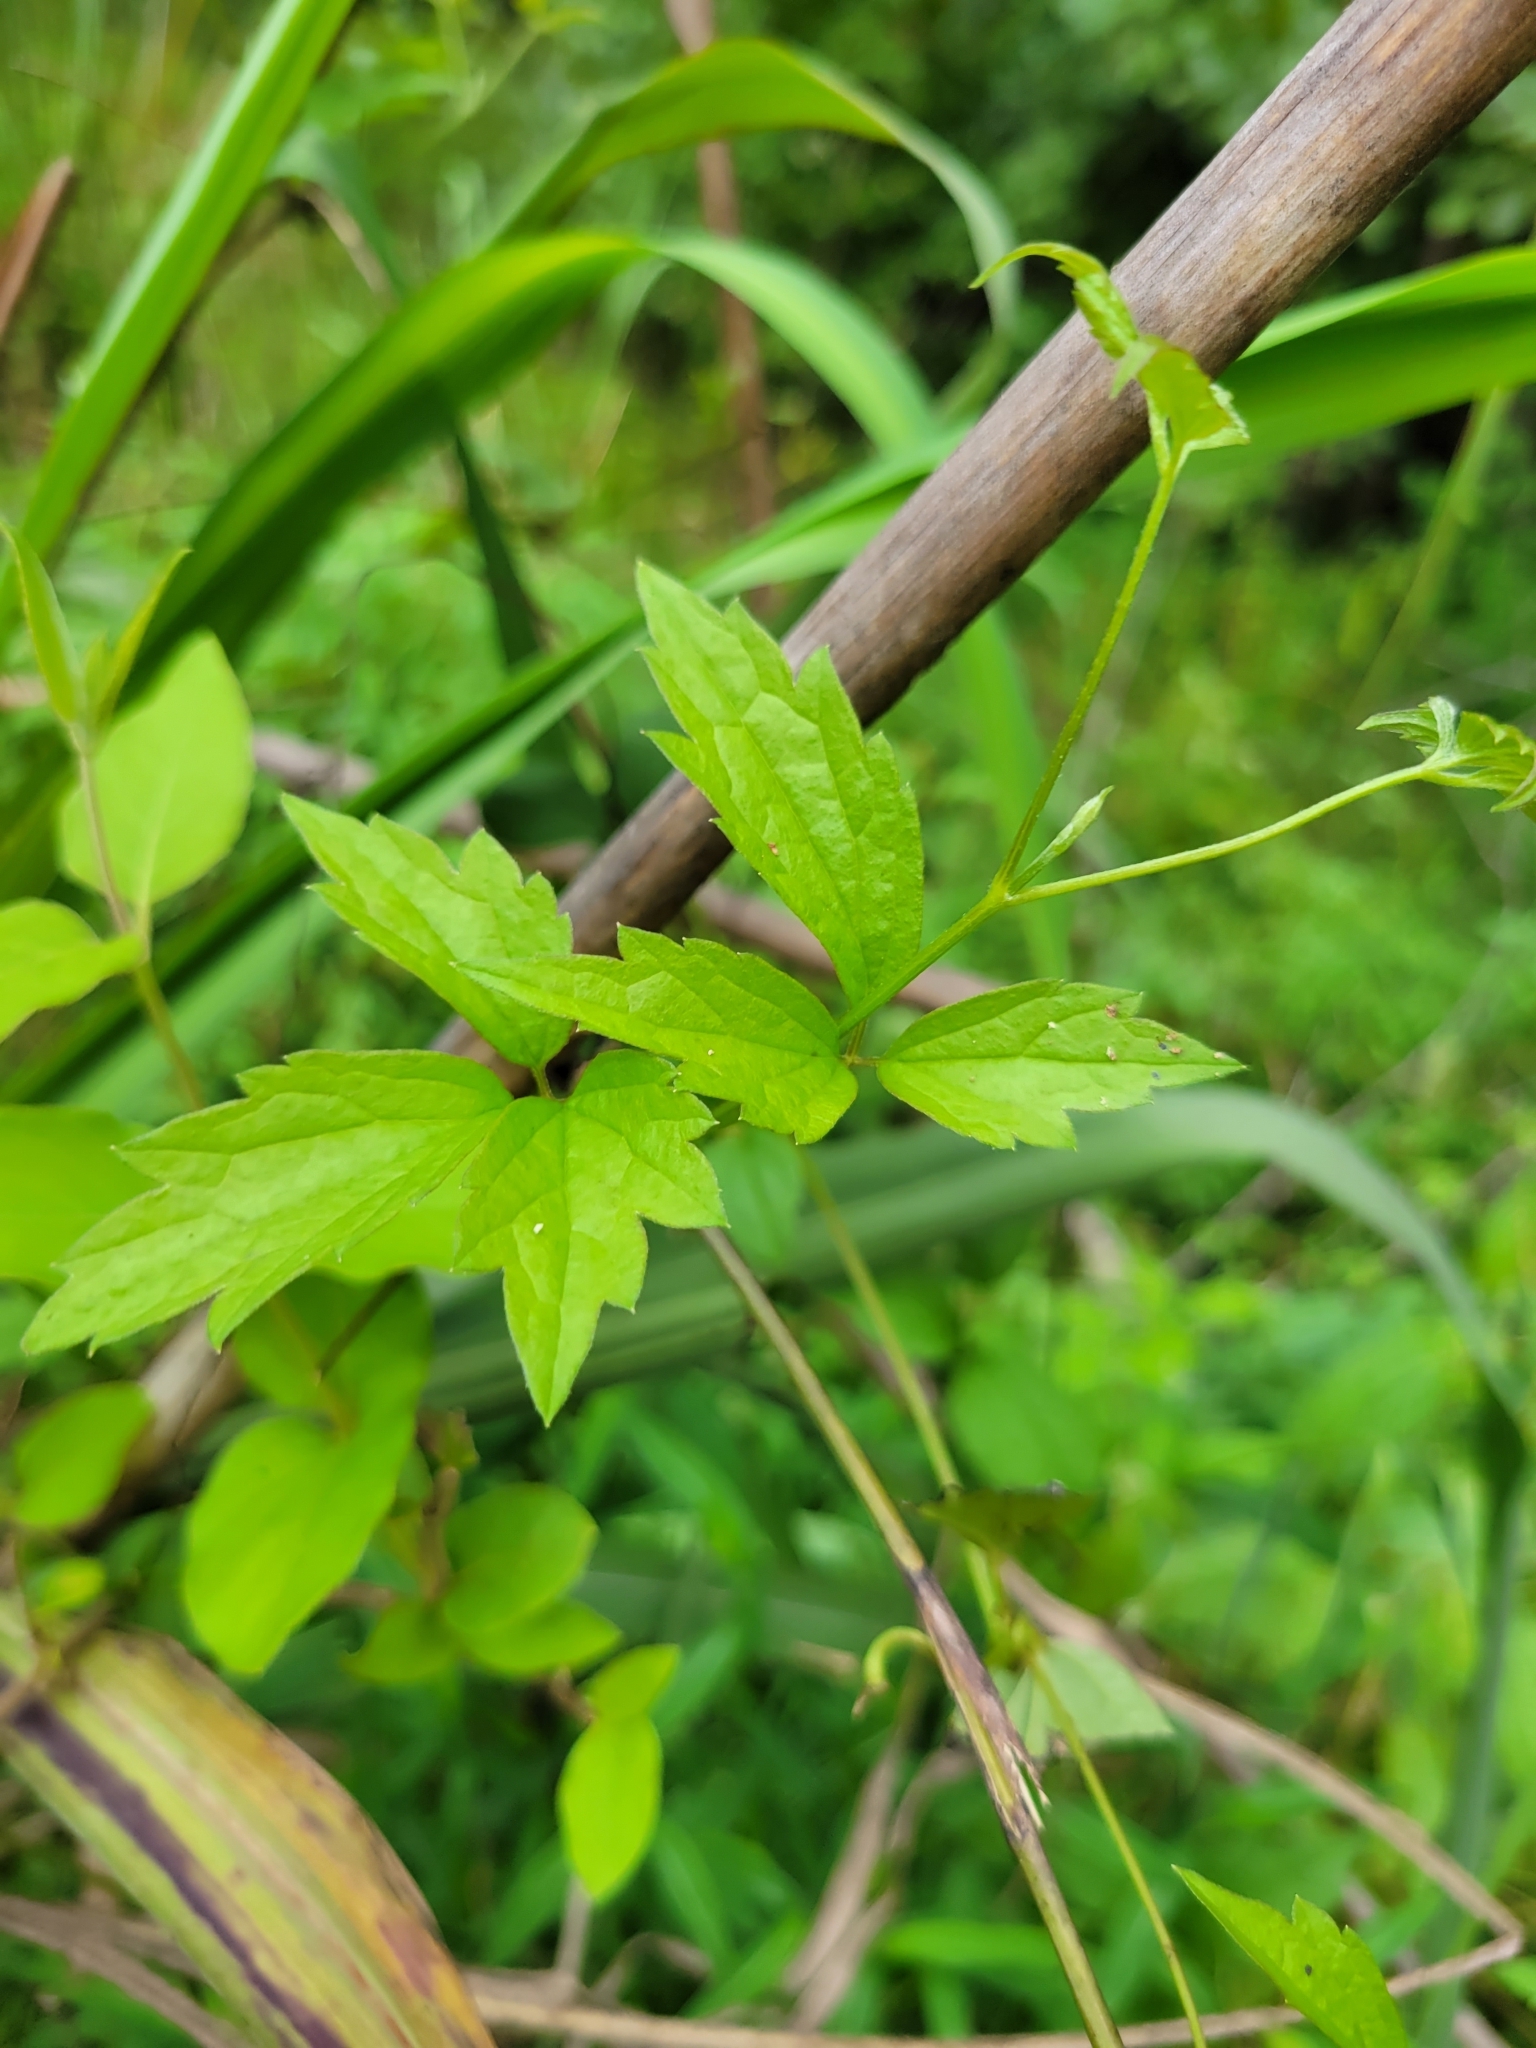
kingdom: Plantae
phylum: Tracheophyta
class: Magnoliopsida
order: Ranunculales
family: Ranunculaceae
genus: Clematis
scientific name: Clematis virginiana
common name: Virgin's-bower
